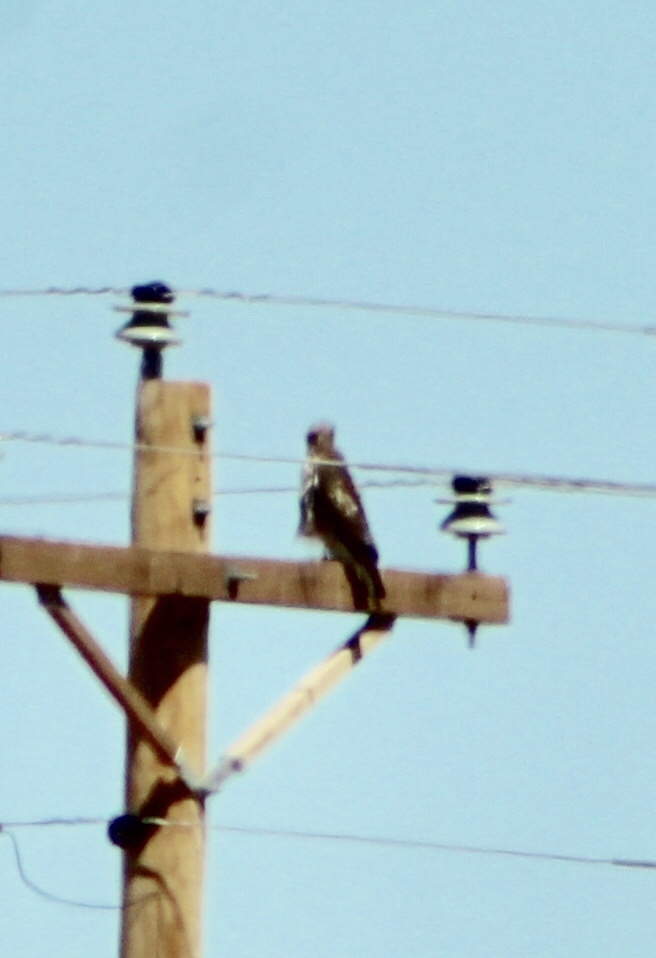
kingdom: Animalia
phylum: Chordata
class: Aves
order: Accipitriformes
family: Accipitridae
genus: Buteo
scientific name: Buteo jamaicensis
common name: Red-tailed hawk
